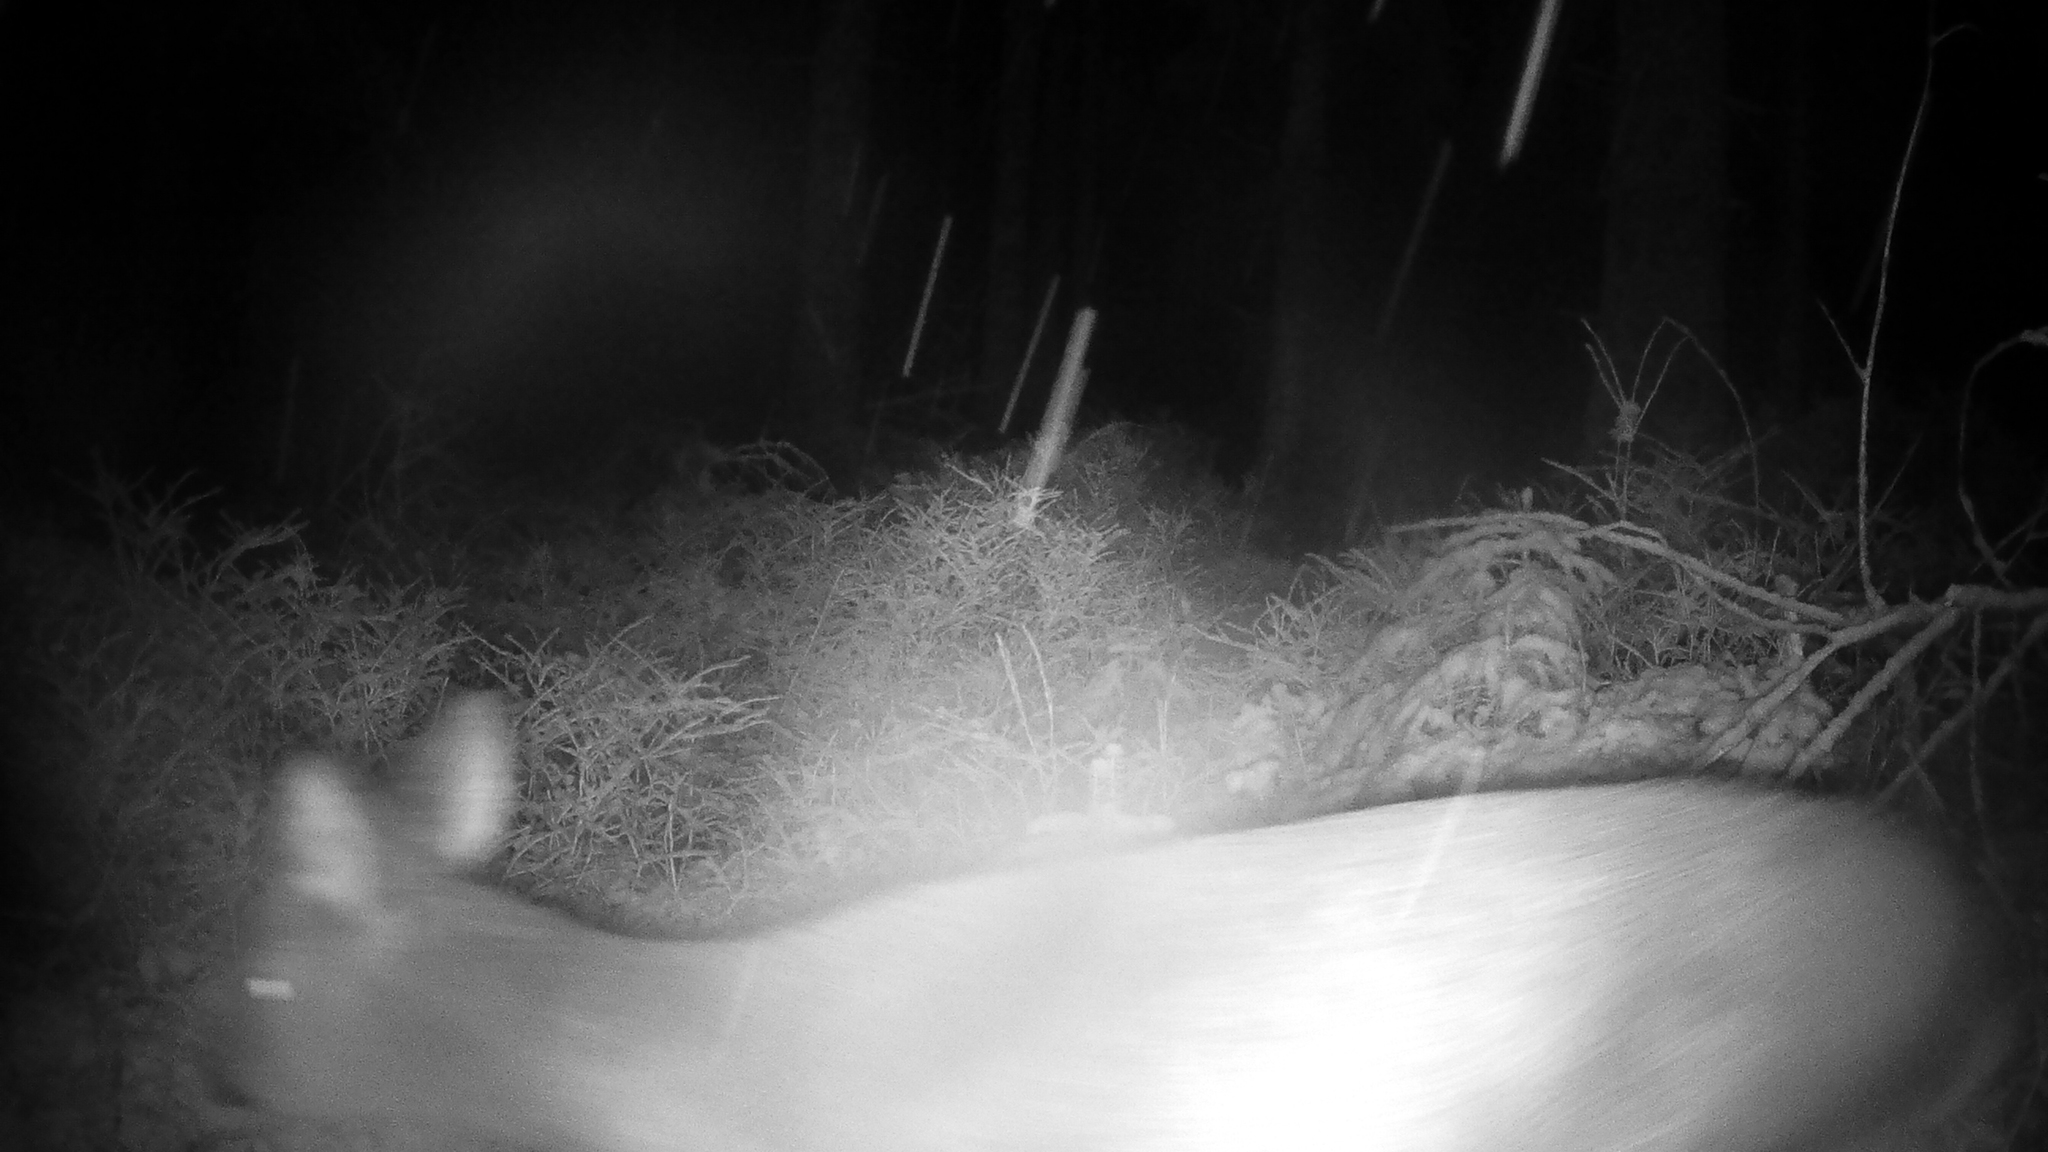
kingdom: Animalia
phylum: Chordata
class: Mammalia
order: Artiodactyla
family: Cervidae
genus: Capreolus
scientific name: Capreolus capreolus
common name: Western roe deer
